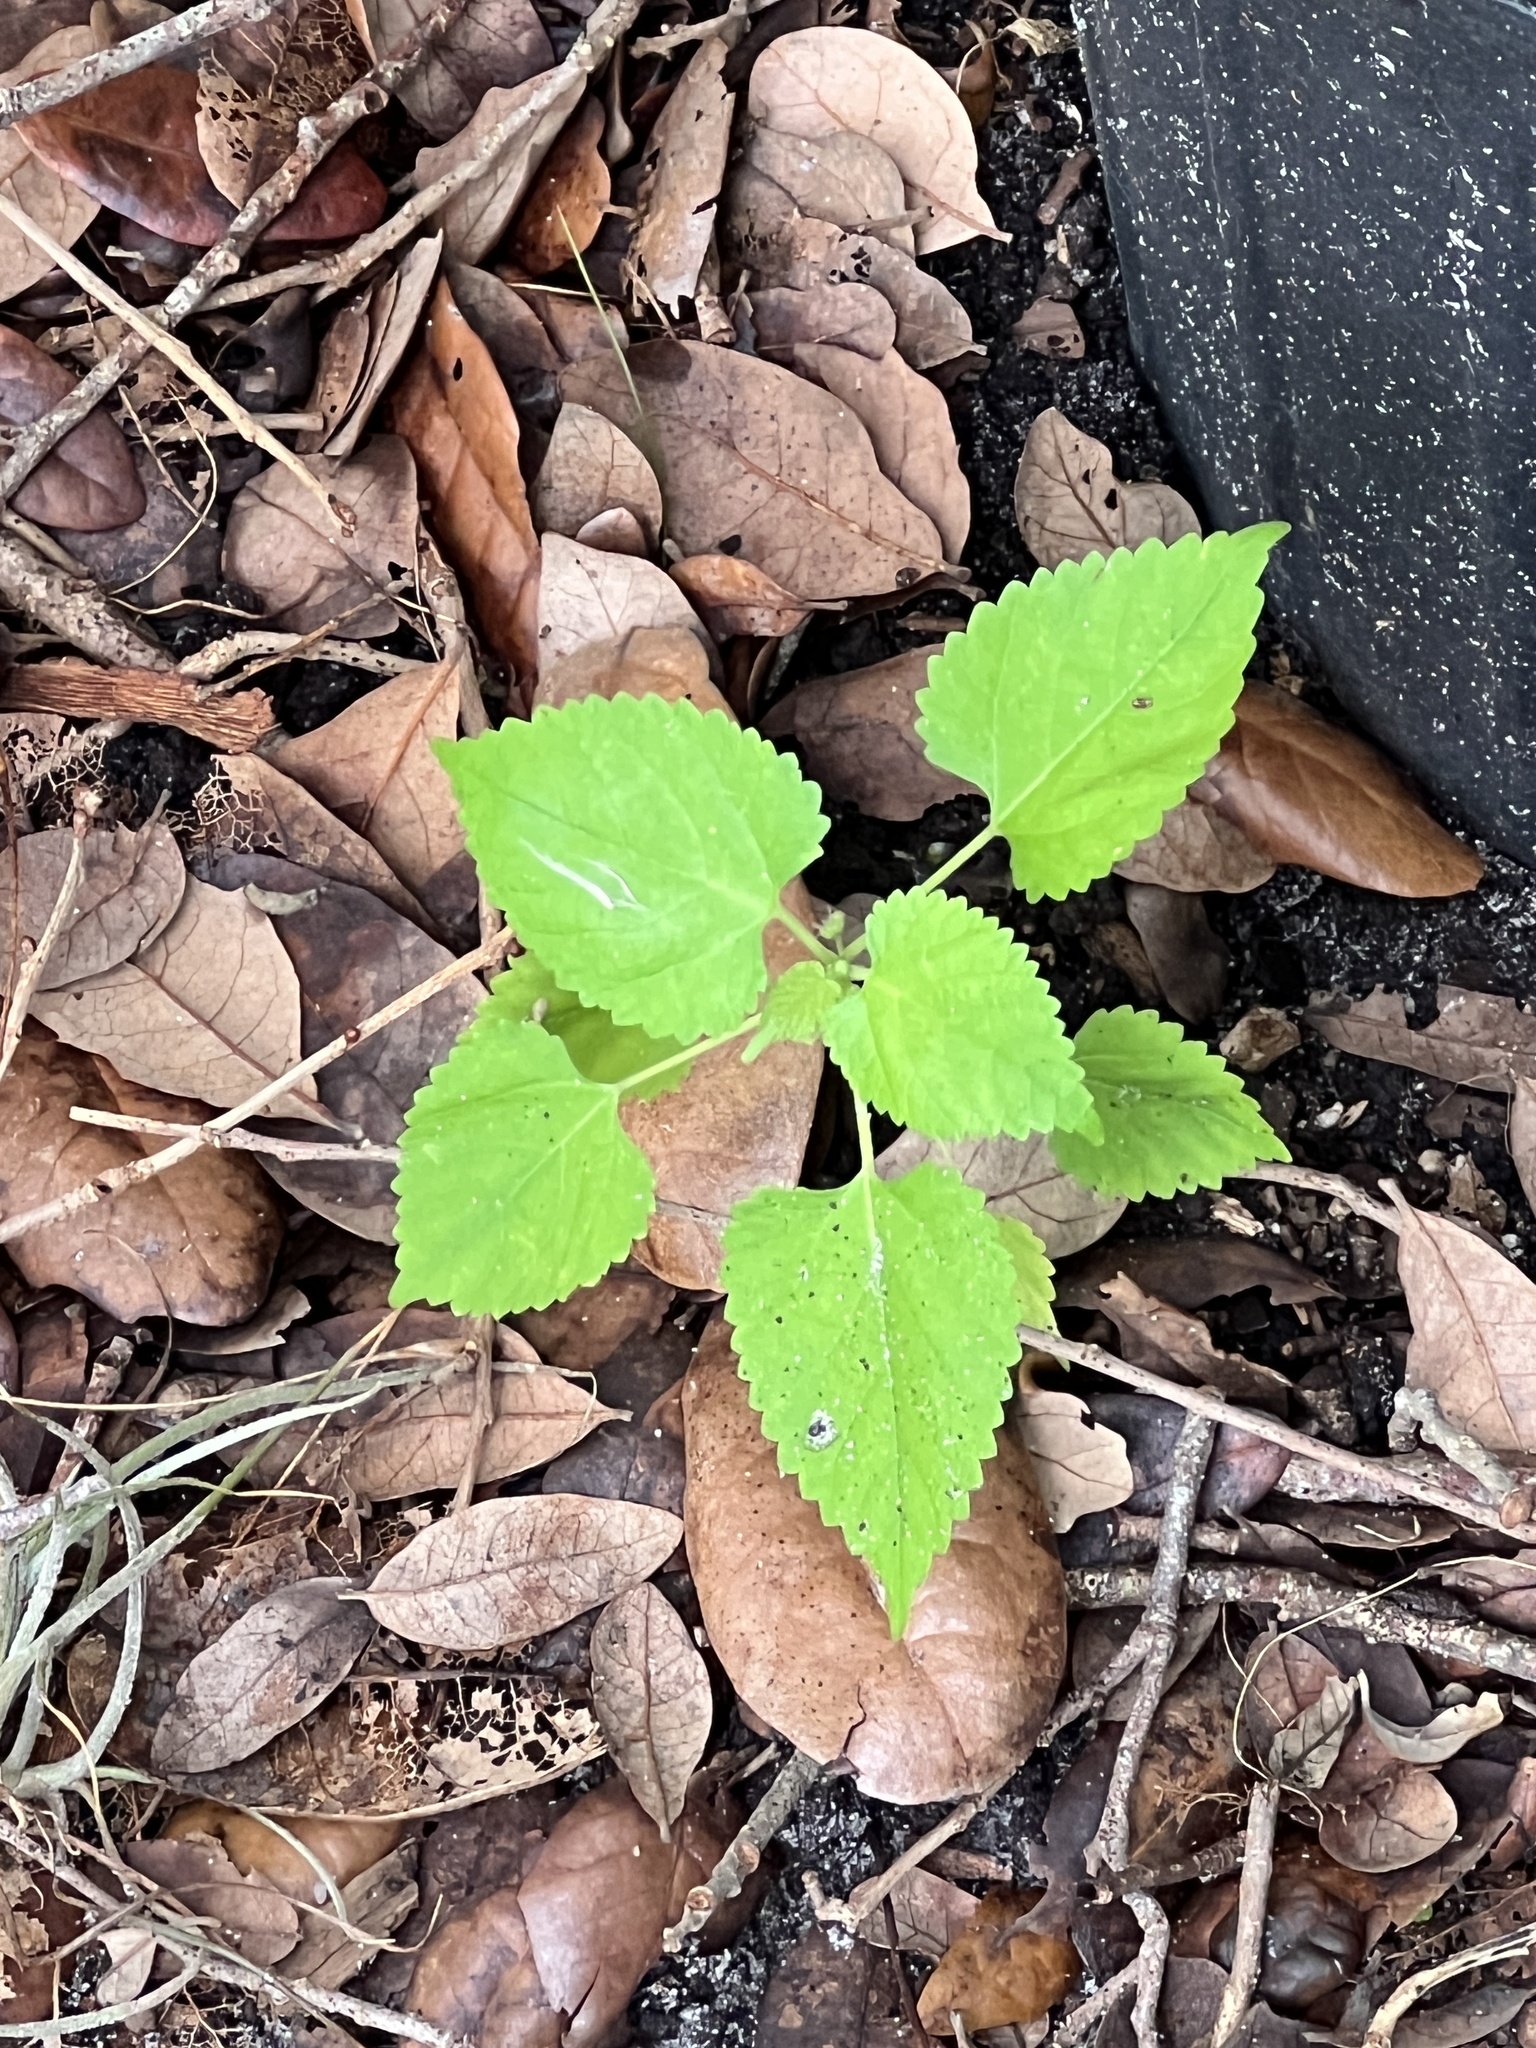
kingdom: Plantae
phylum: Tracheophyta
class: Magnoliopsida
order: Rosales
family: Moraceae
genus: Fatoua
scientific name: Fatoua villosa
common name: Hairy crabweed
